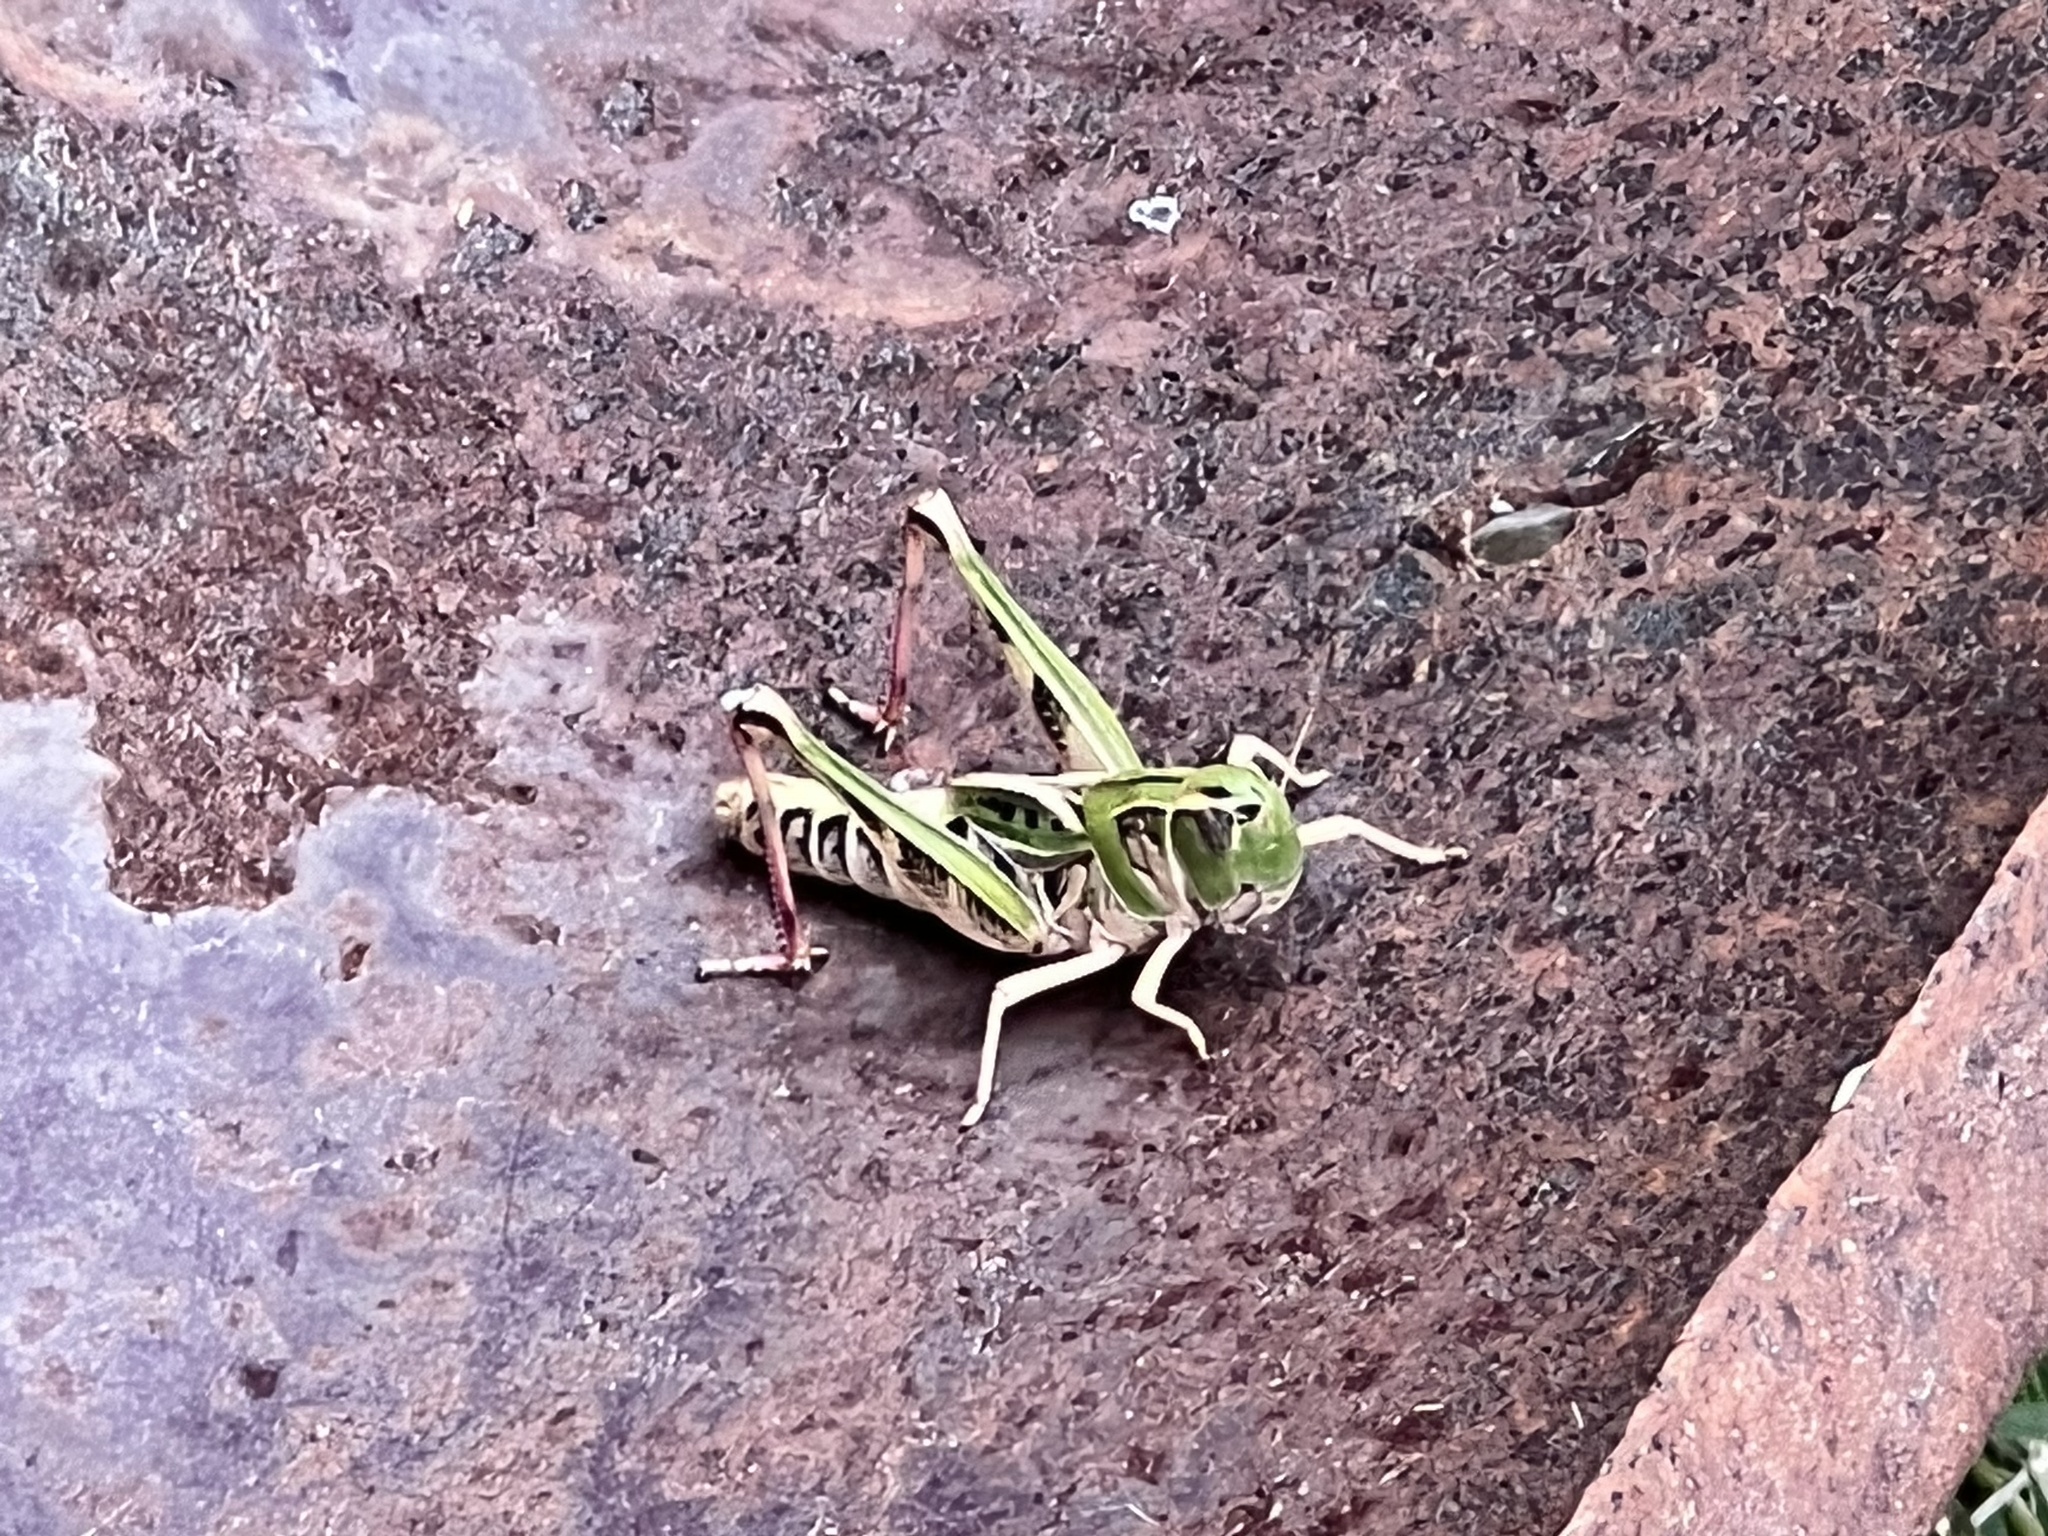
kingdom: Animalia
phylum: Arthropoda
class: Insecta
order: Orthoptera
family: Acrididae
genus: Boopedon
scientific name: Boopedon gracile
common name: Graceful range grasshopper
